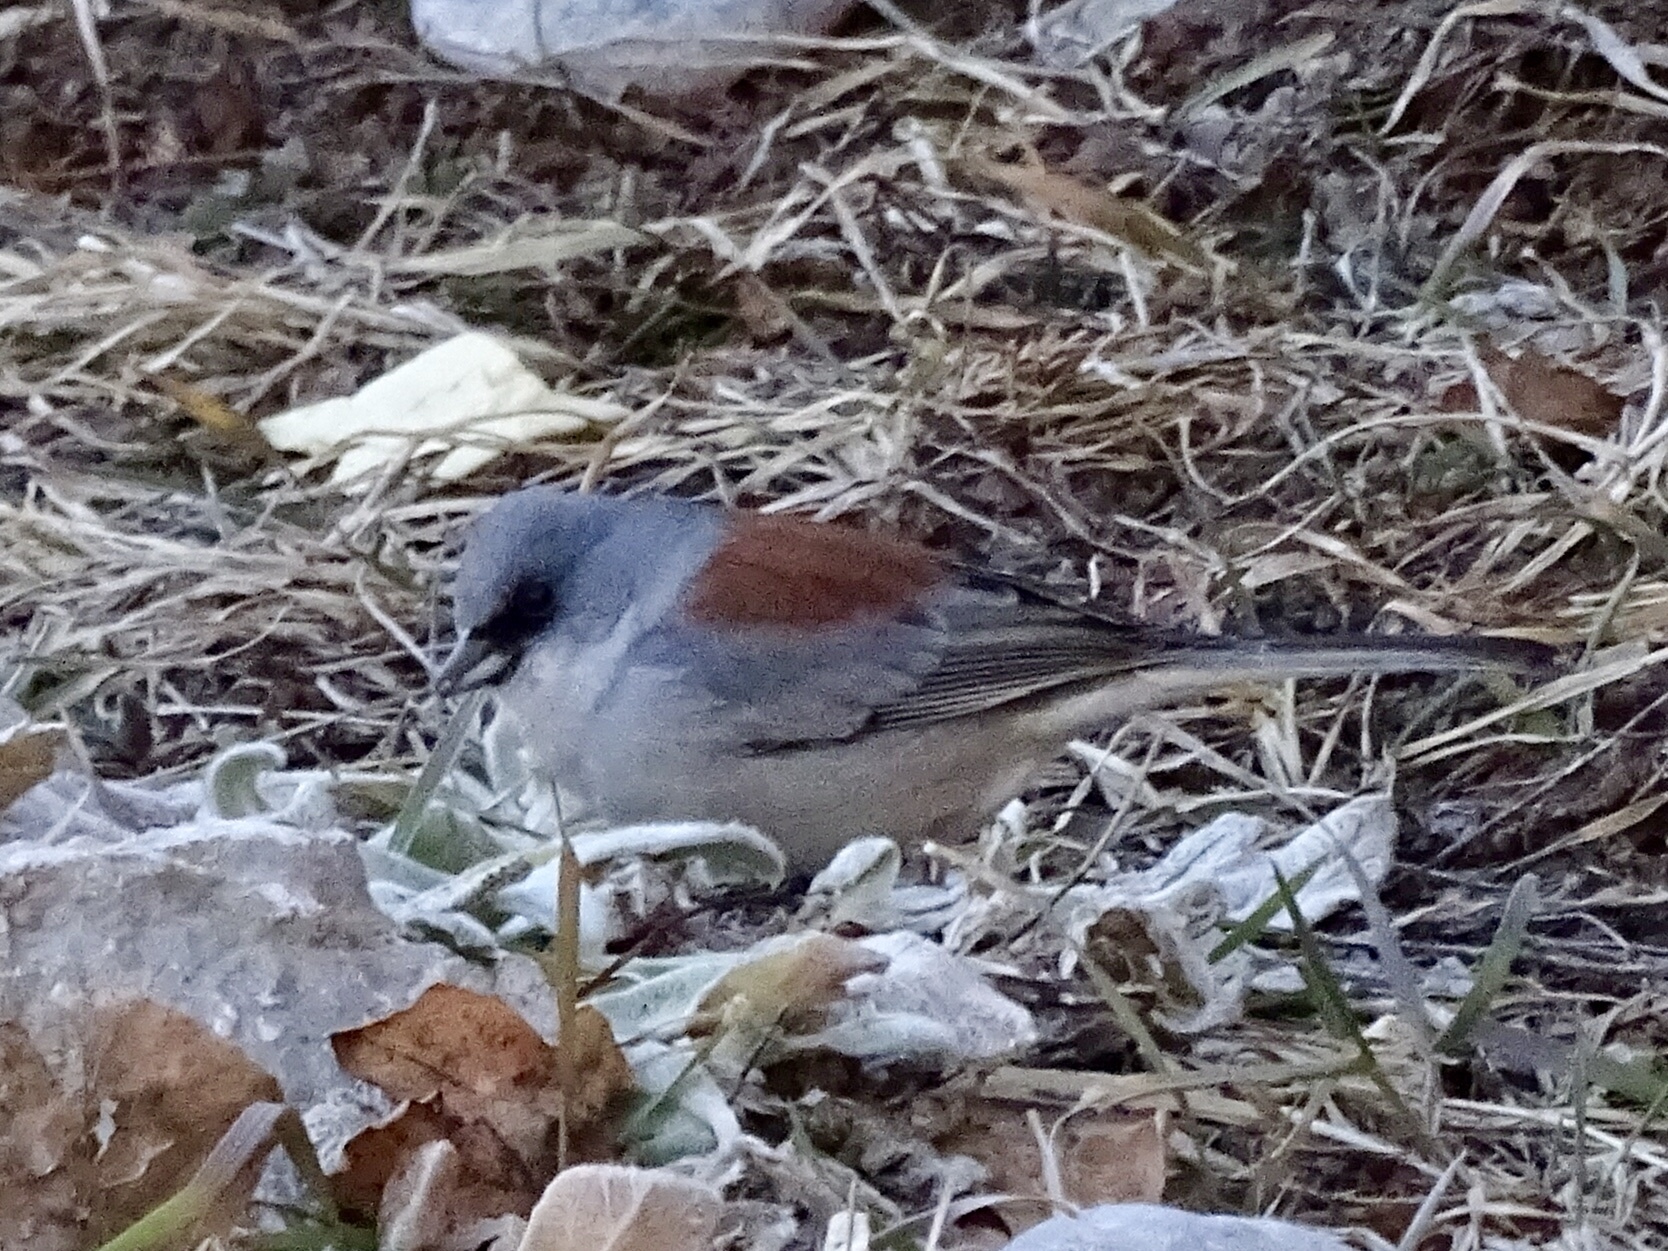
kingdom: Animalia
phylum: Chordata
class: Aves
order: Passeriformes
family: Passerellidae
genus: Junco
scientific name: Junco hyemalis
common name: Dark-eyed junco
